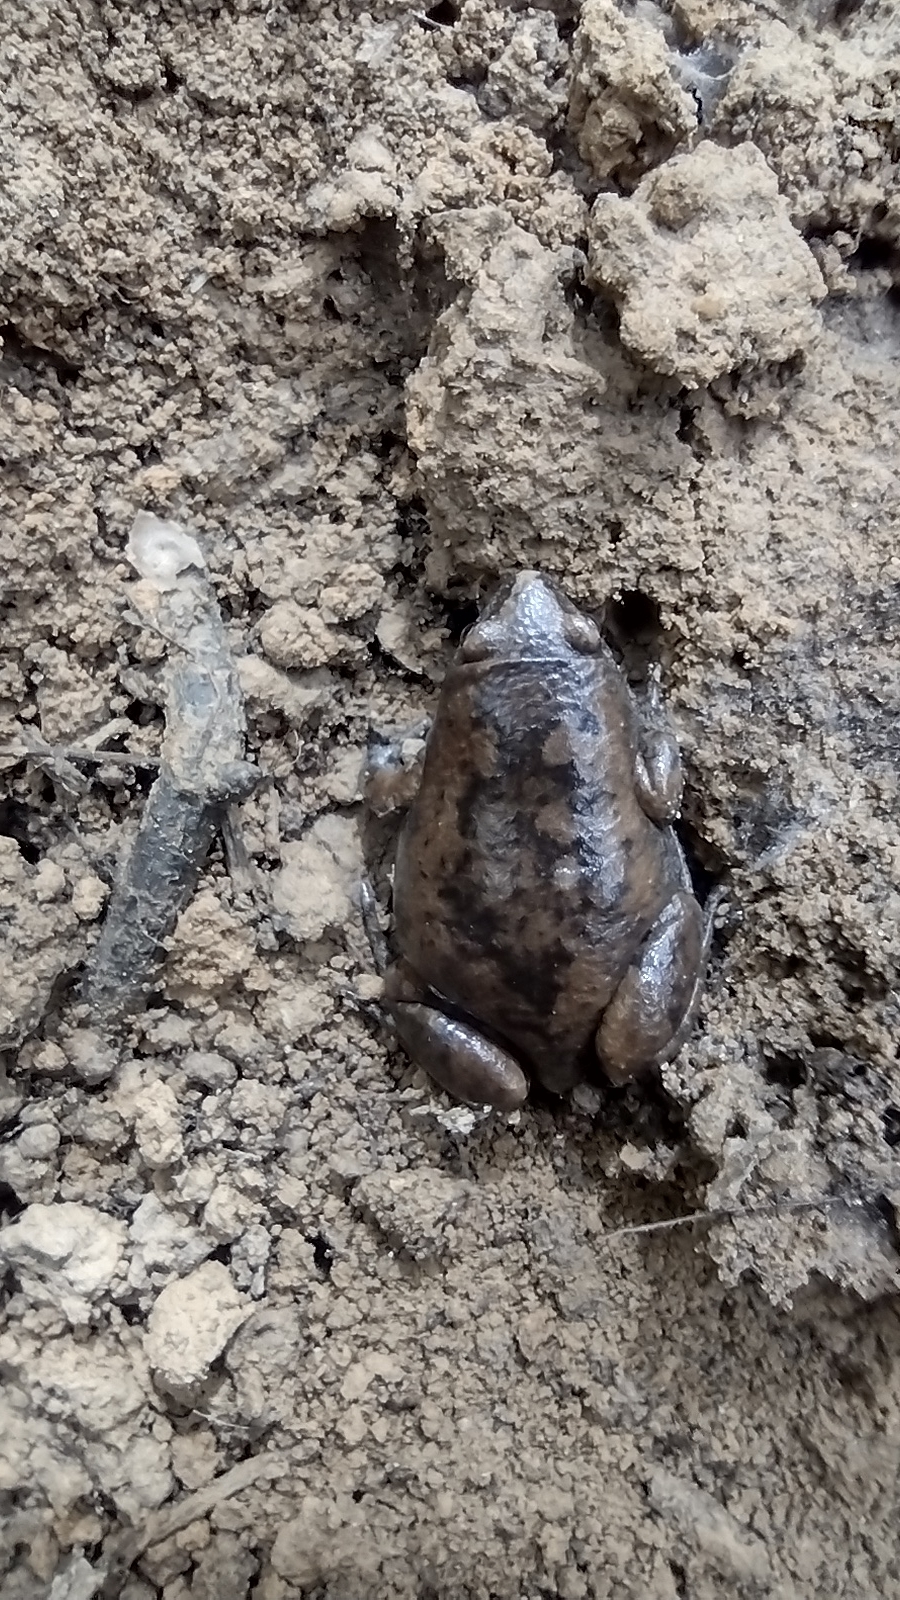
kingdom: Animalia
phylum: Chordata
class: Amphibia
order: Anura
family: Microhylidae
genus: Gastrophryne
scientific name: Gastrophryne carolinensis
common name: Eastern narrowmouth toad
